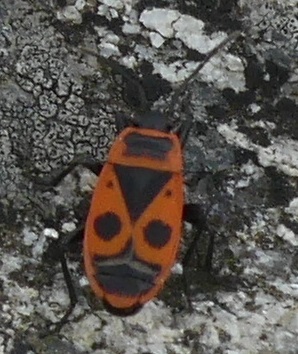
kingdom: Animalia
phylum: Arthropoda
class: Insecta
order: Hemiptera
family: Pyrrhocoridae
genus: Pyrrhocoris
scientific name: Pyrrhocoris apterus
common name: Firebug
